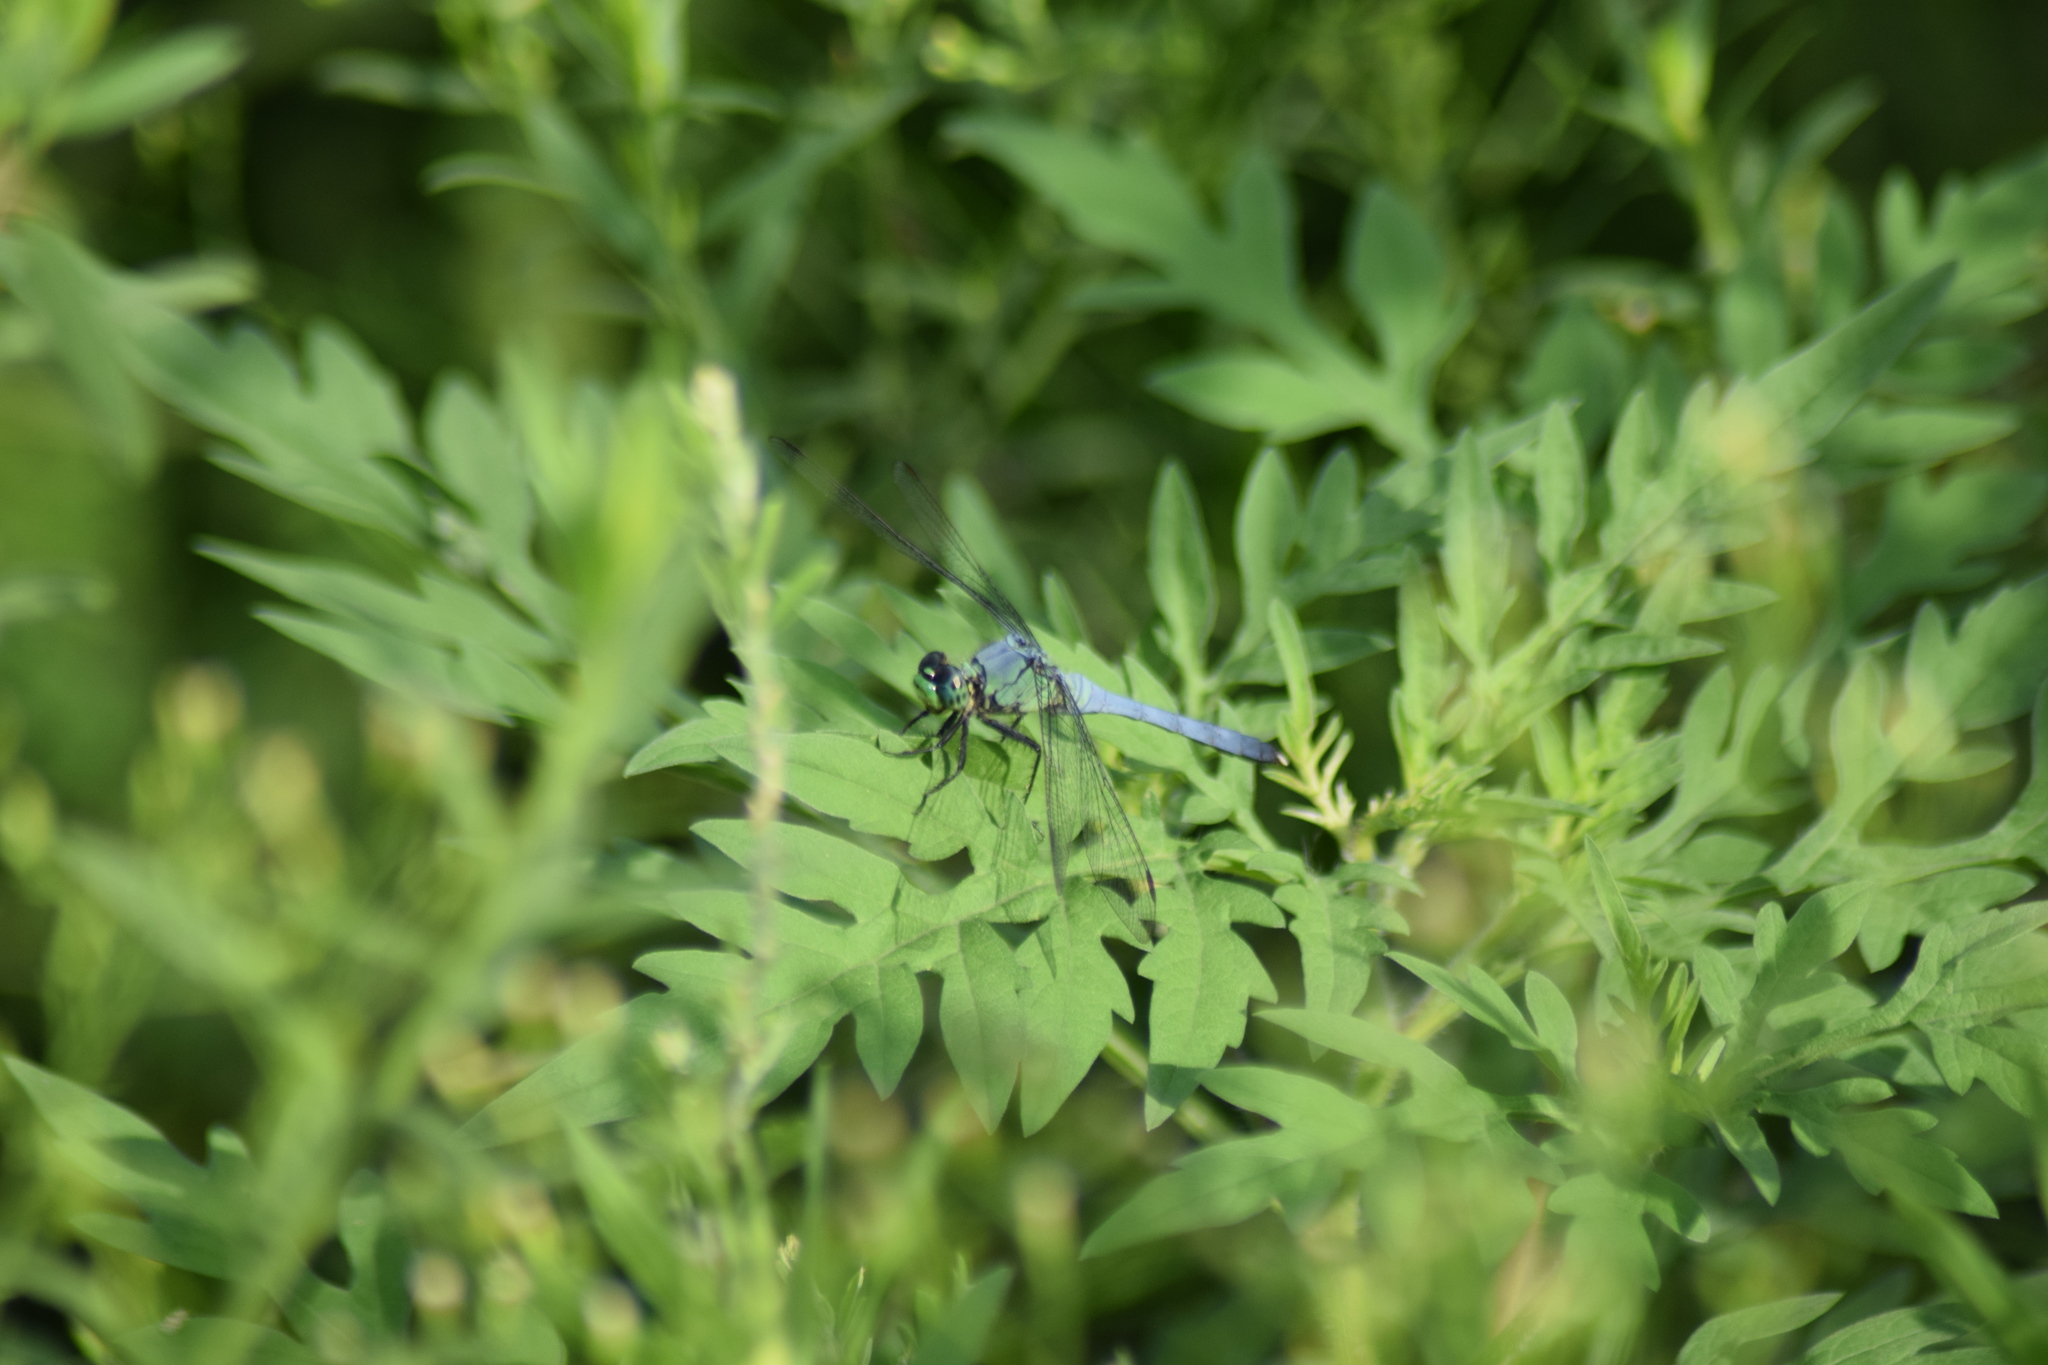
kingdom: Animalia
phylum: Arthropoda
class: Insecta
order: Odonata
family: Libellulidae
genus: Erythemis
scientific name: Erythemis simplicicollis
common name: Eastern pondhawk
